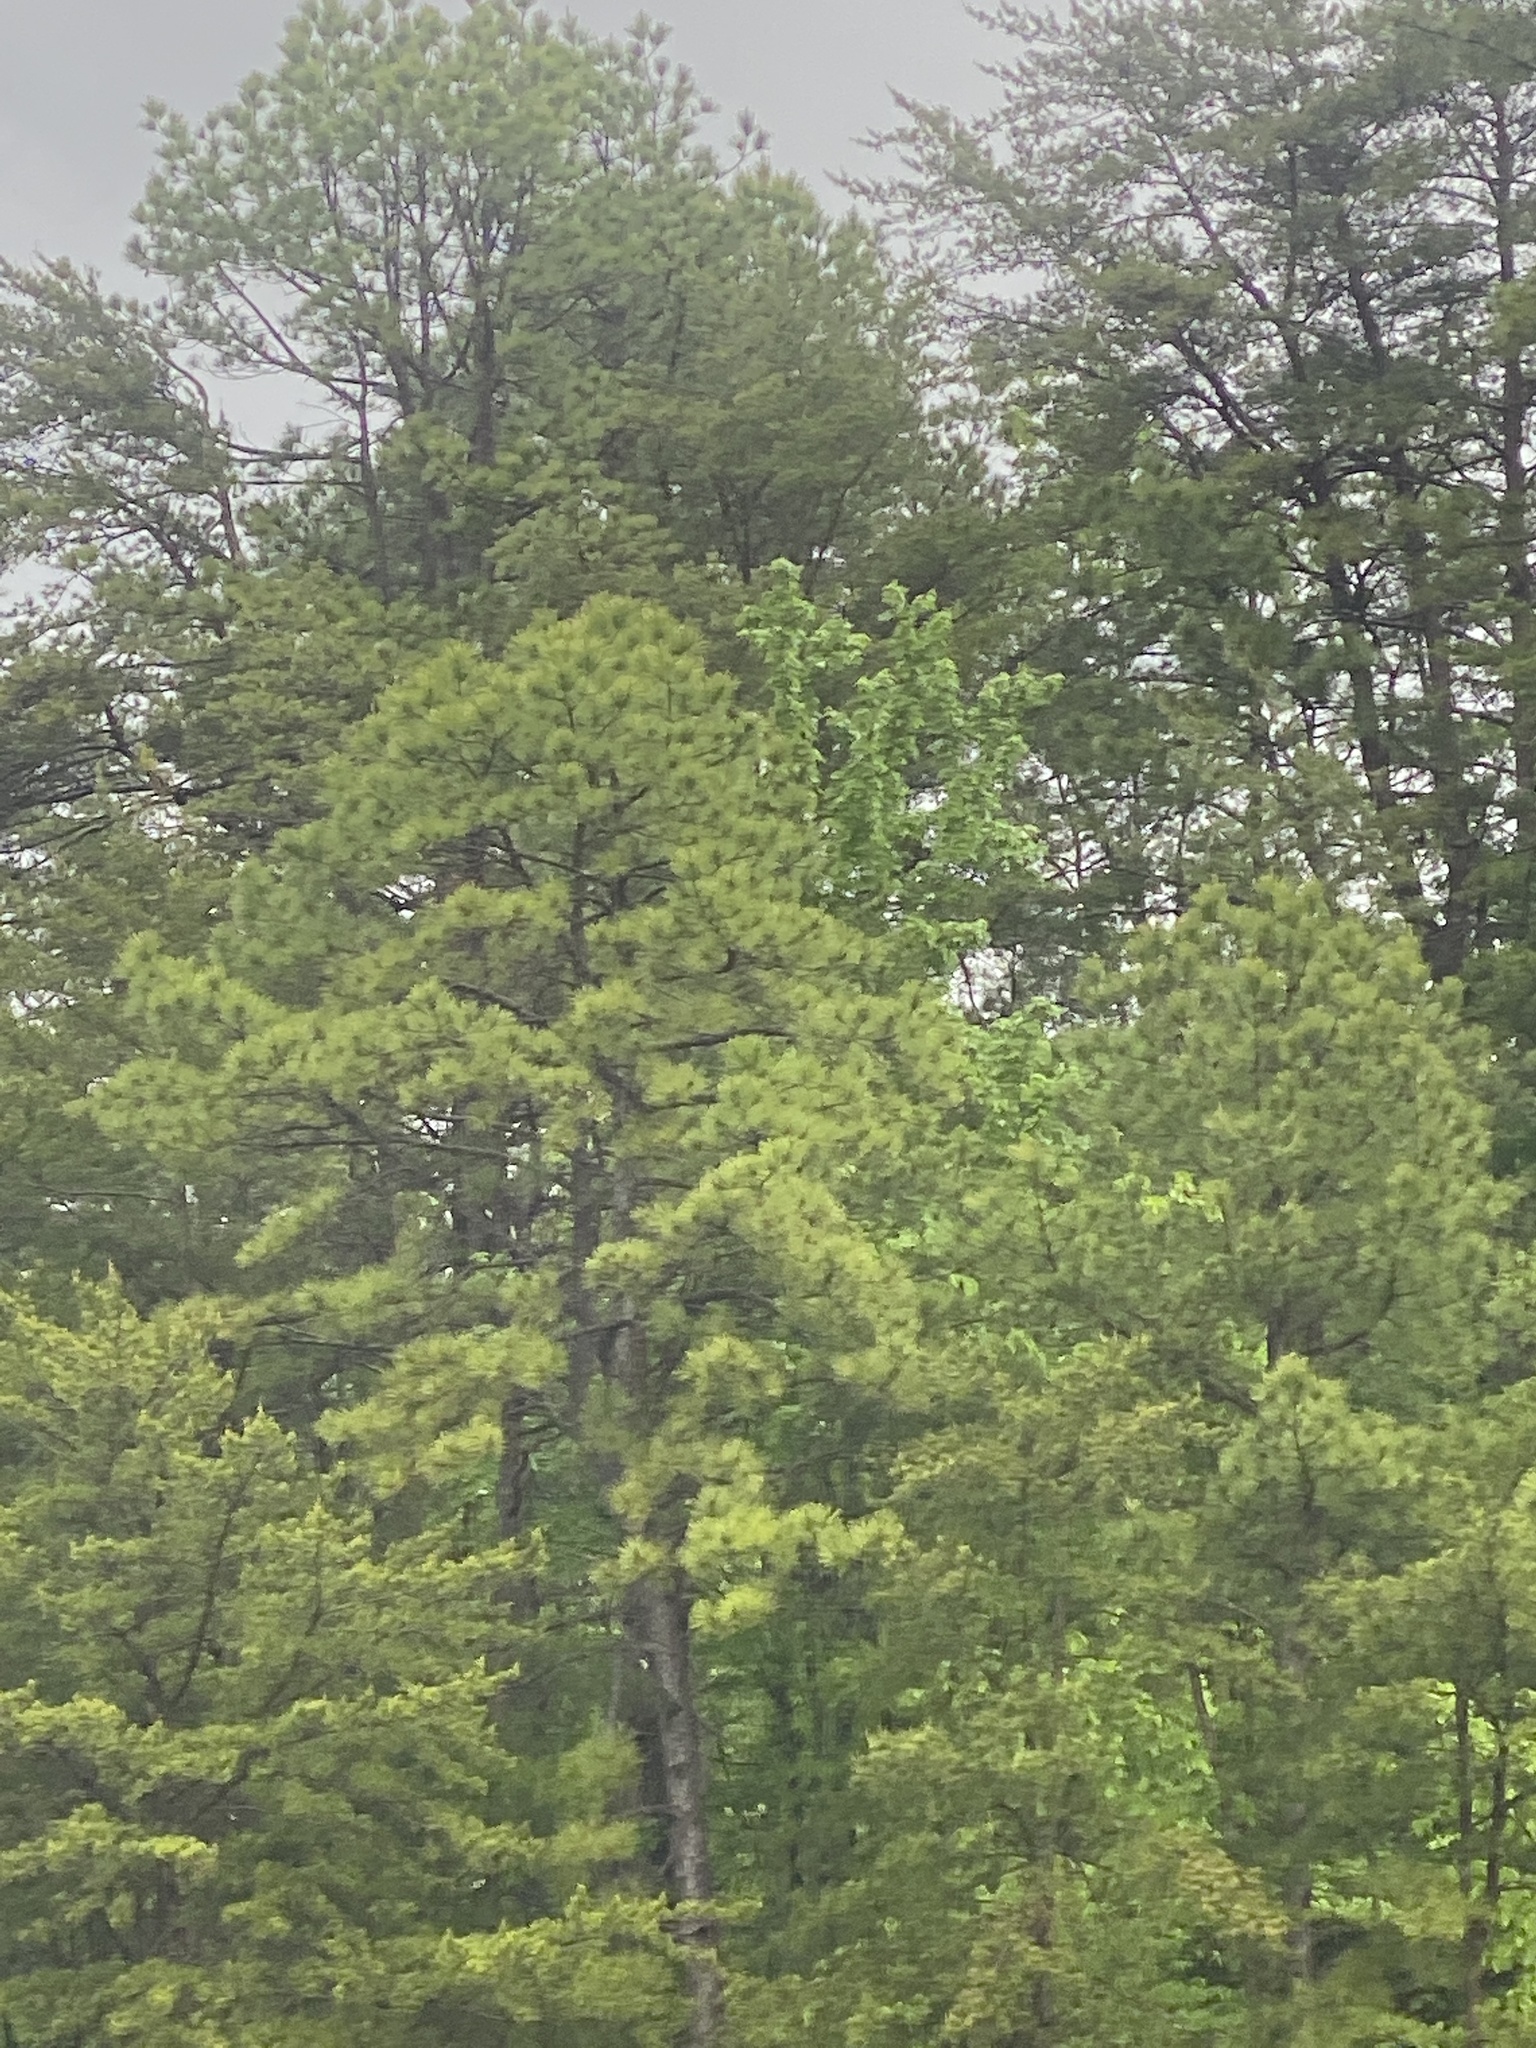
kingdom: Plantae
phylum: Tracheophyta
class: Pinopsida
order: Pinales
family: Pinaceae
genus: Pinus
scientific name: Pinus rigida
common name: Pitch pine
